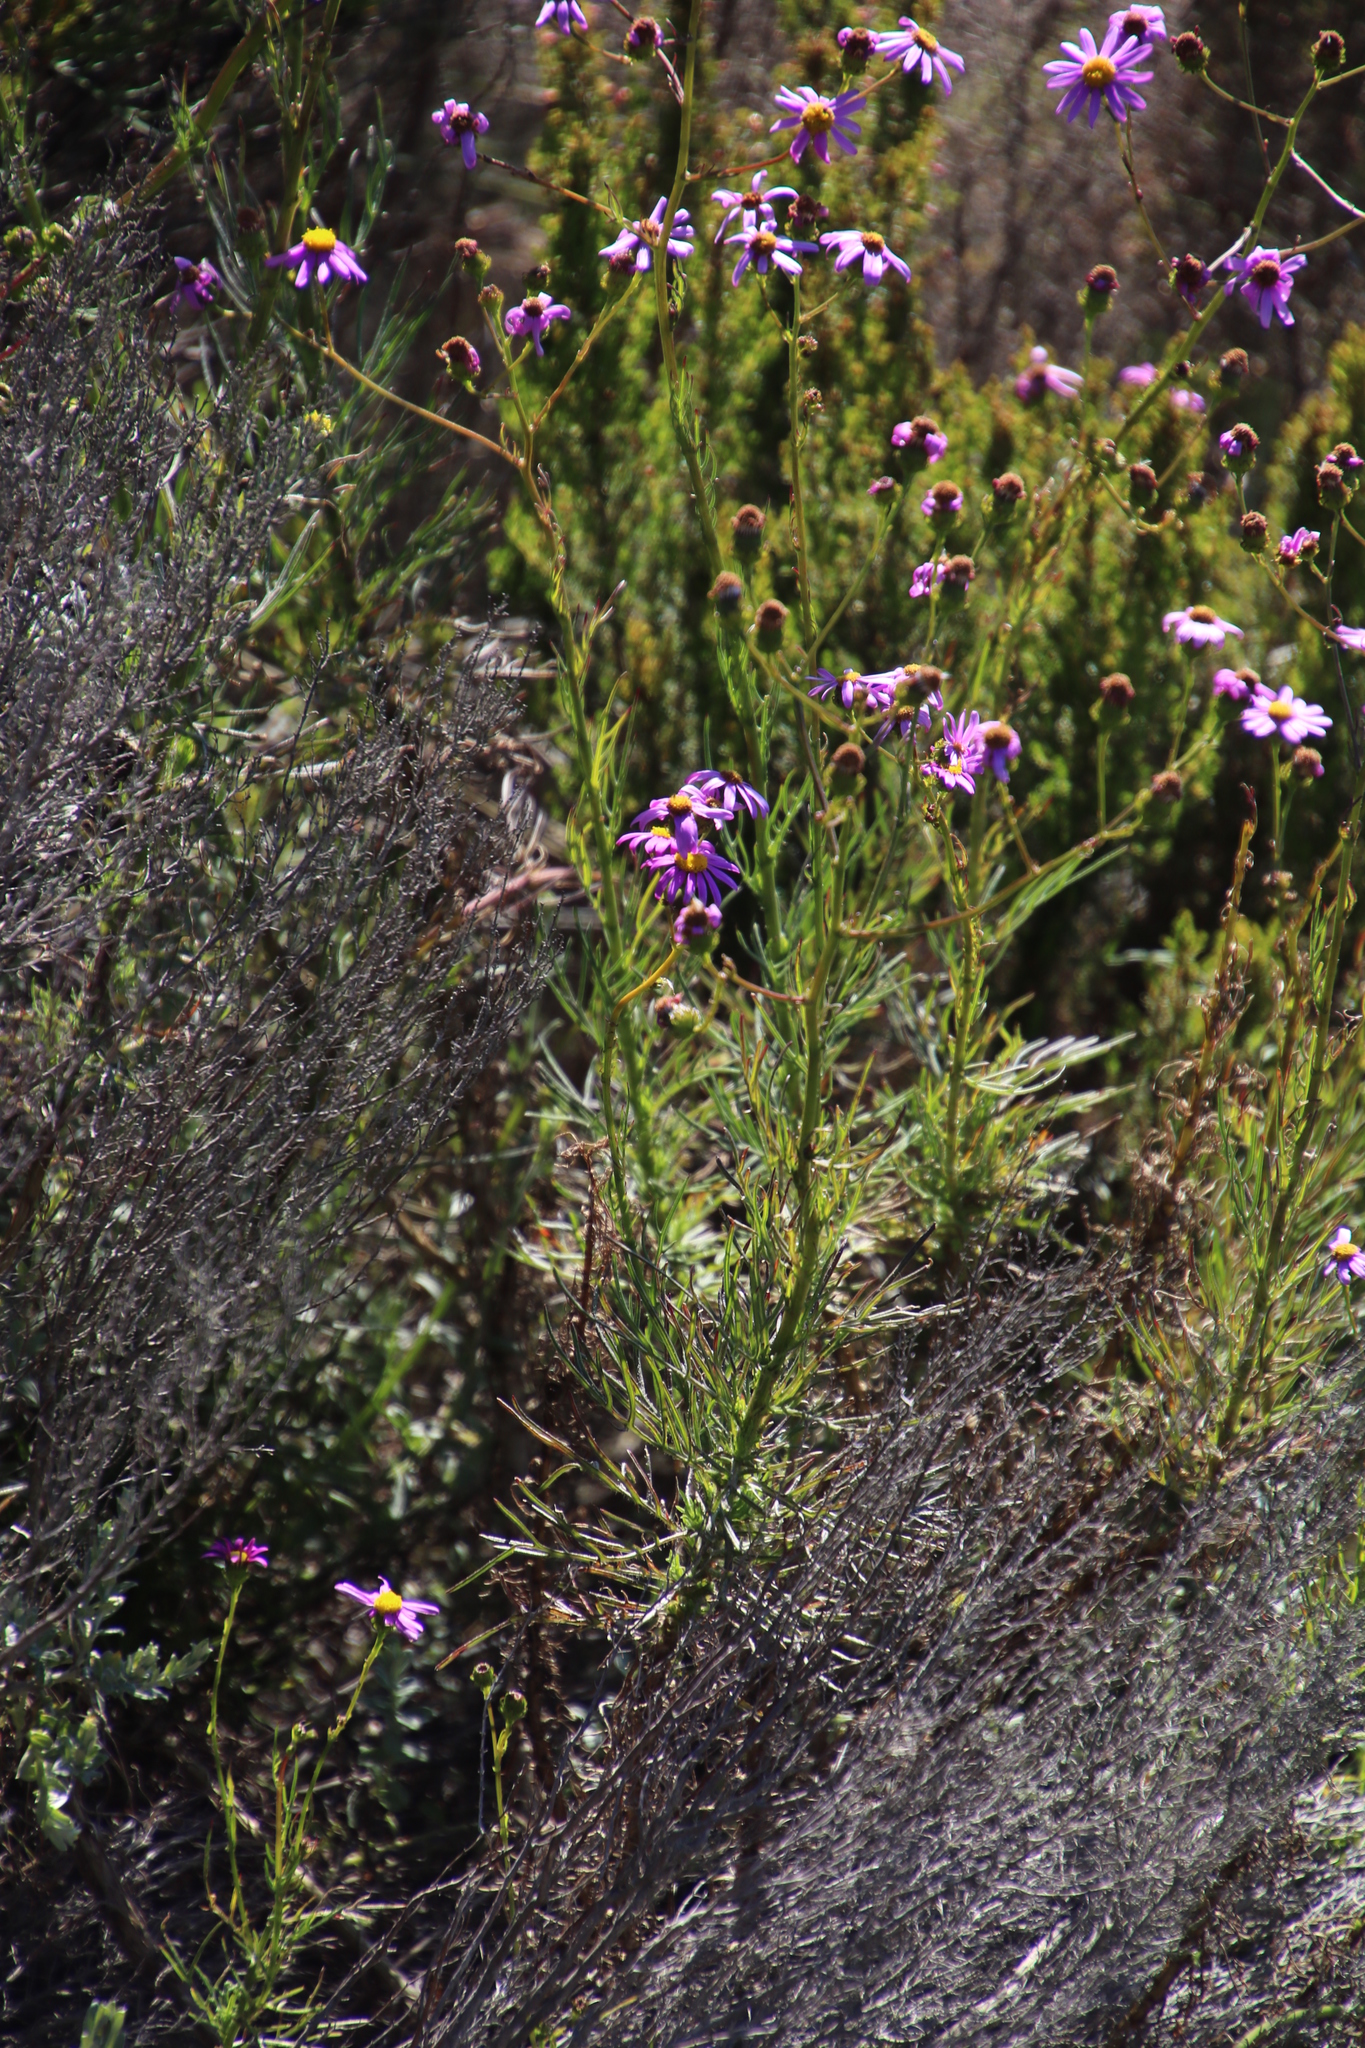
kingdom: Plantae
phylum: Tracheophyta
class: Magnoliopsida
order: Asterales
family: Asteraceae
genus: Senecio
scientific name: Senecio elegans
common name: Purple groundsel
